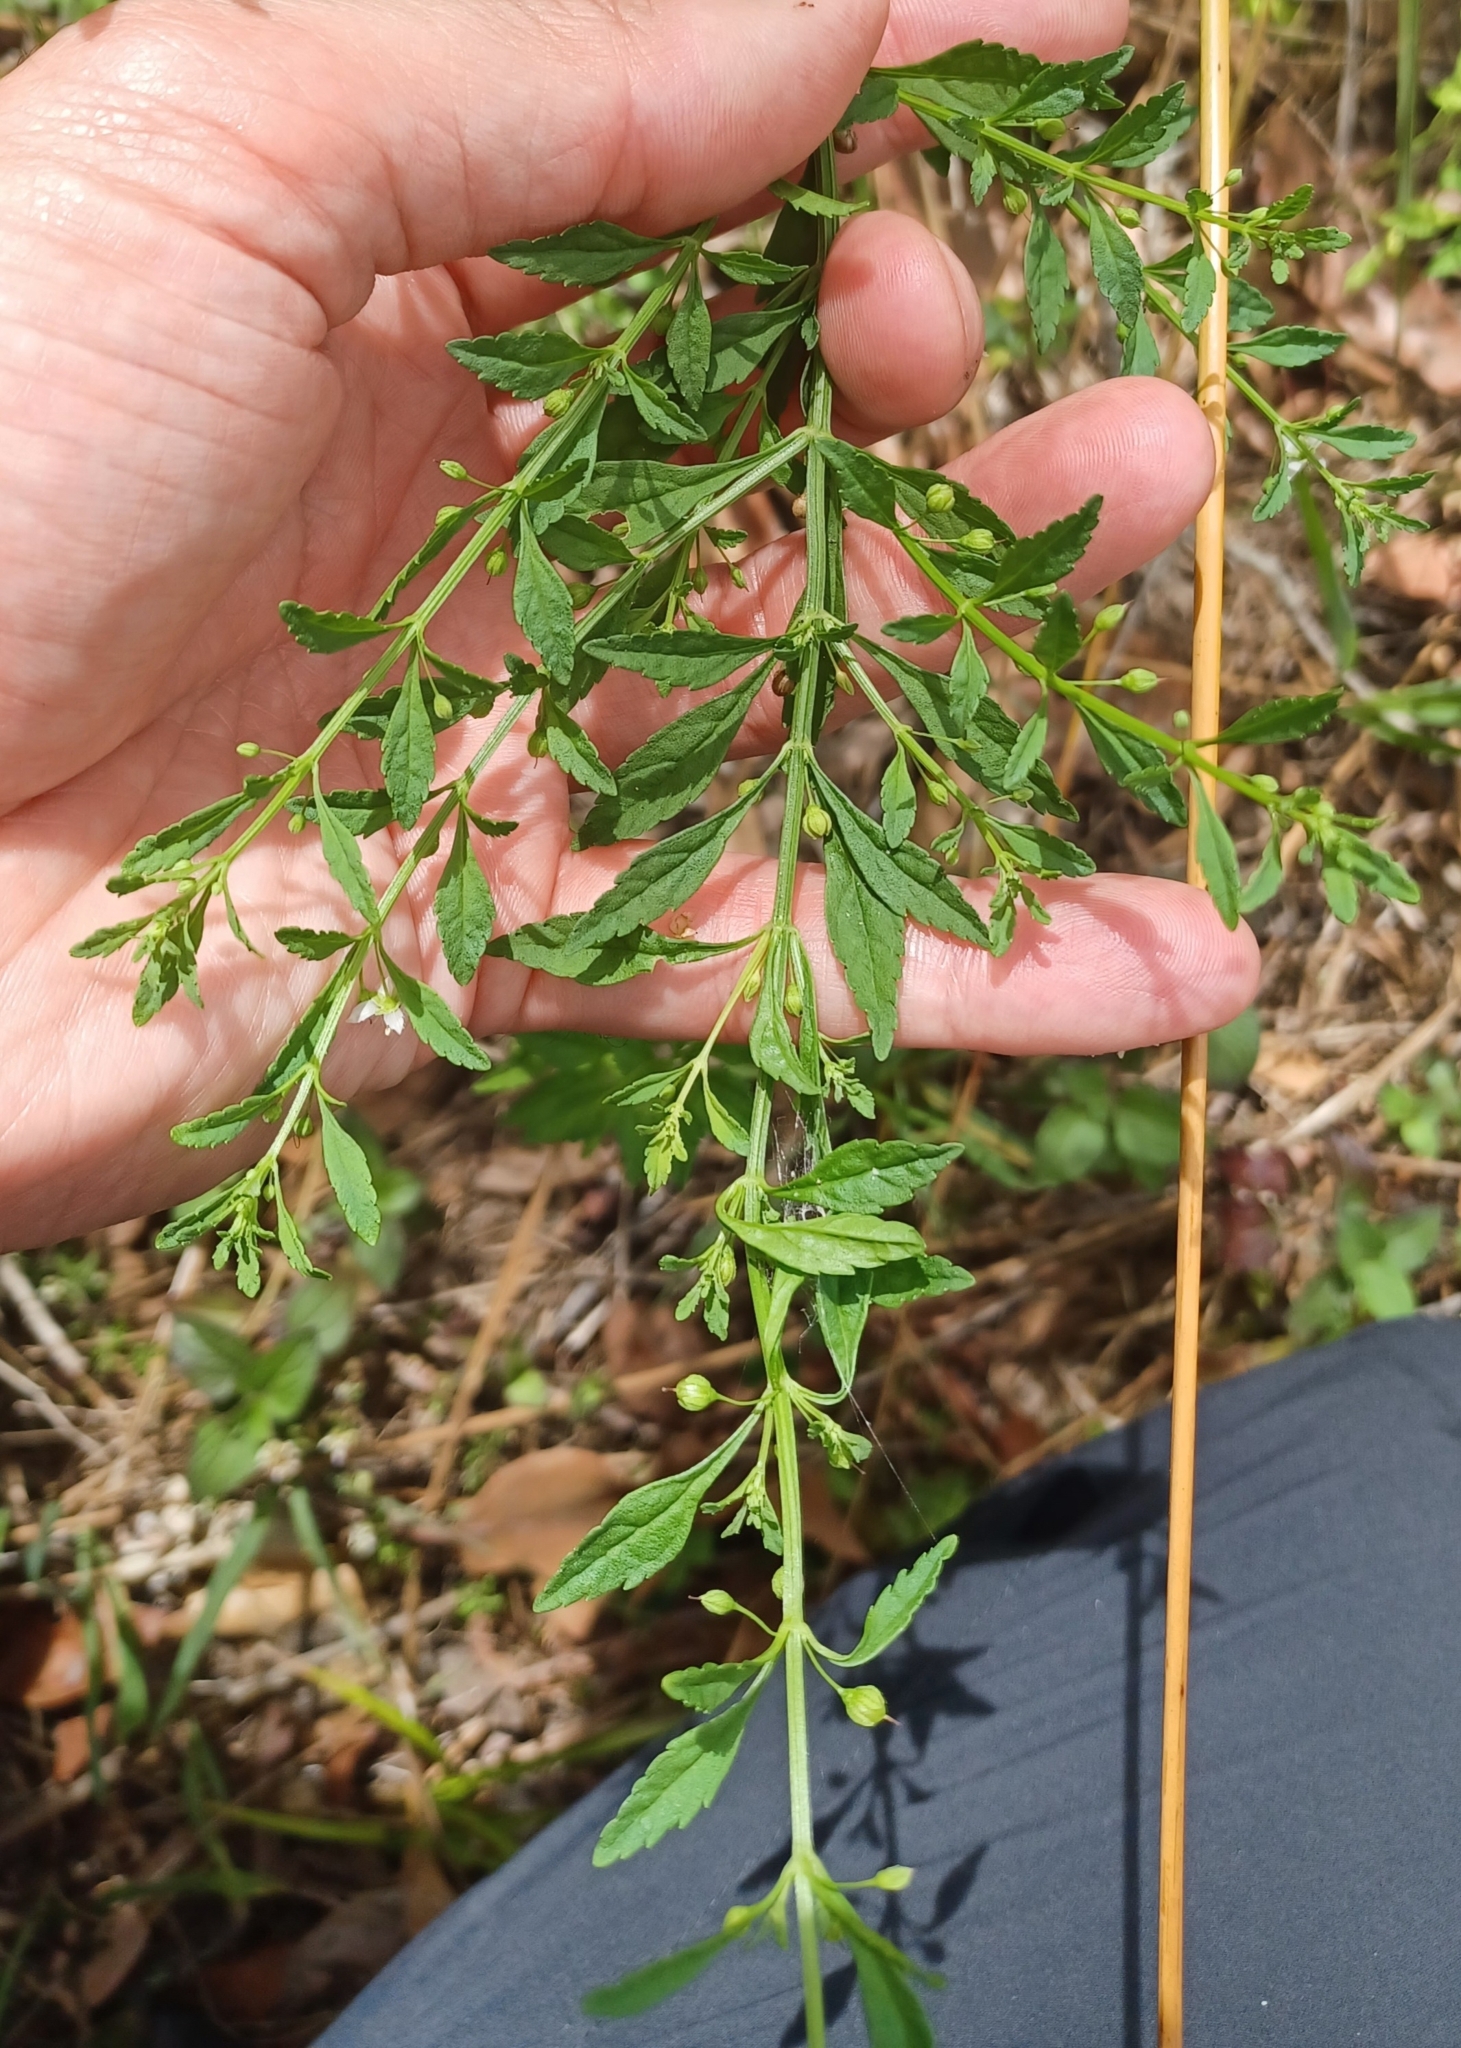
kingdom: Plantae
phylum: Tracheophyta
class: Magnoliopsida
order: Lamiales
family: Plantaginaceae
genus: Scoparia
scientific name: Scoparia dulcis
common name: Scoparia-weed
